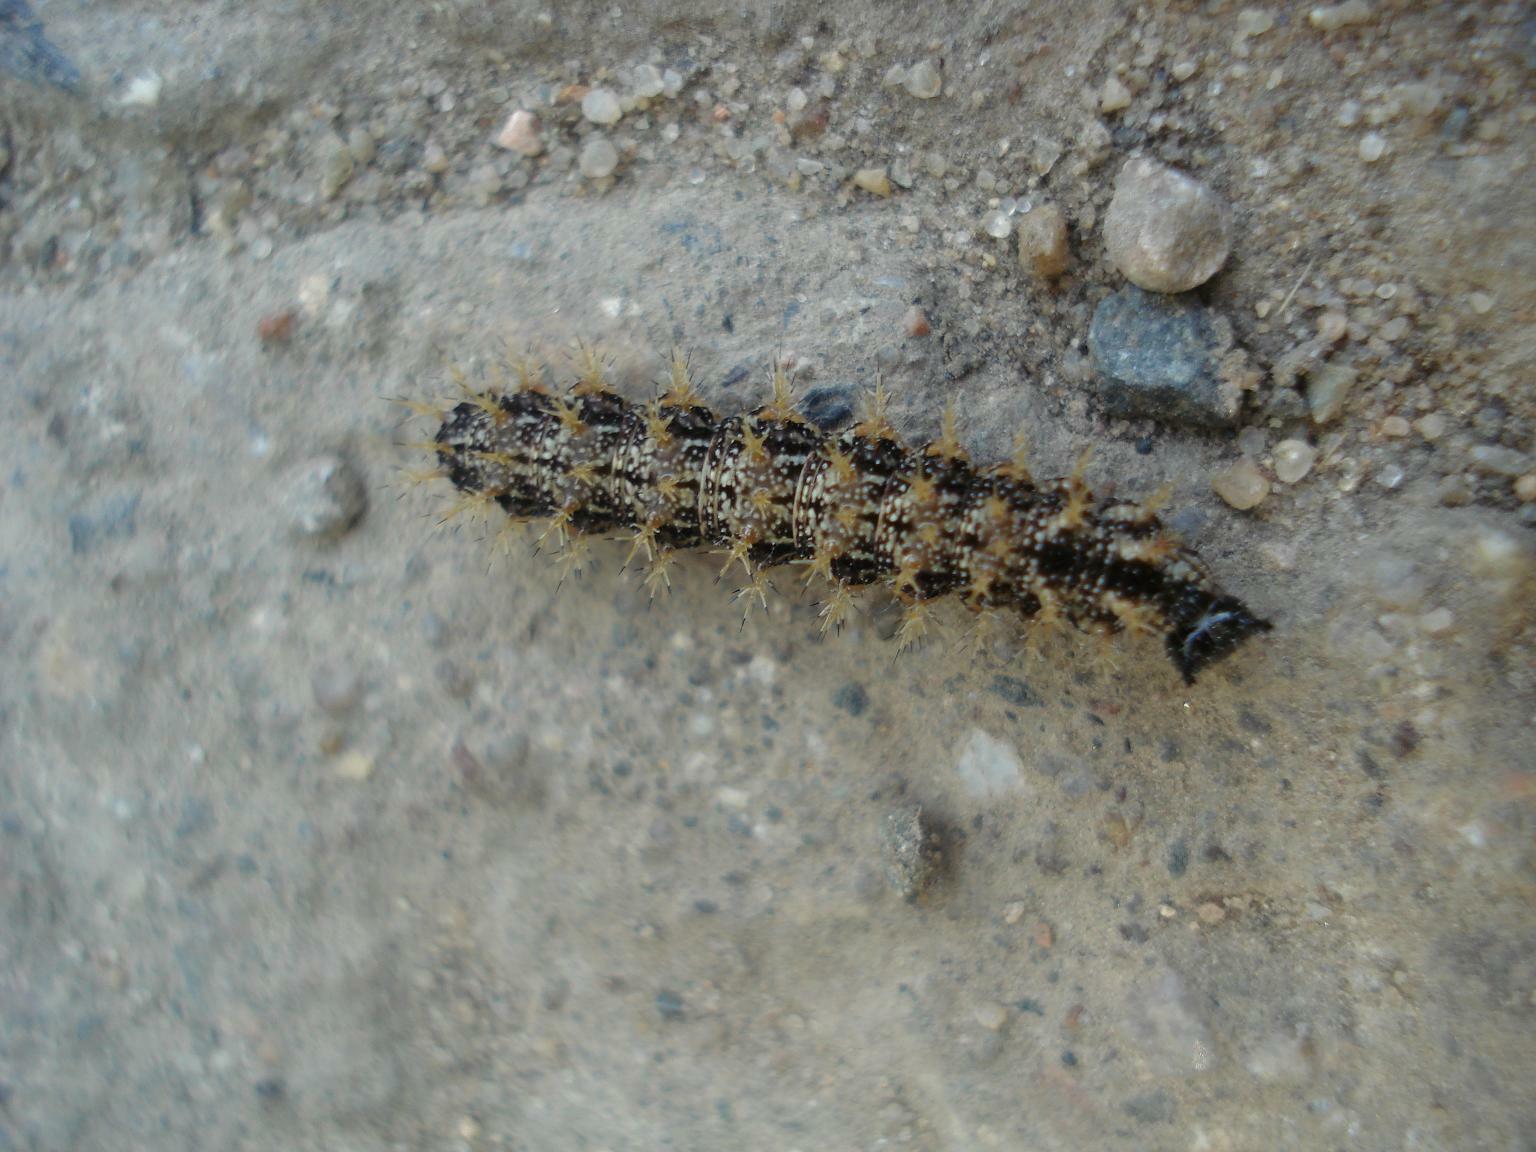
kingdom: Animalia
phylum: Arthropoda
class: Insecta
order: Lepidoptera
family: Nymphalidae
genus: Araschnia
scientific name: Araschnia levana
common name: Map butterfly
